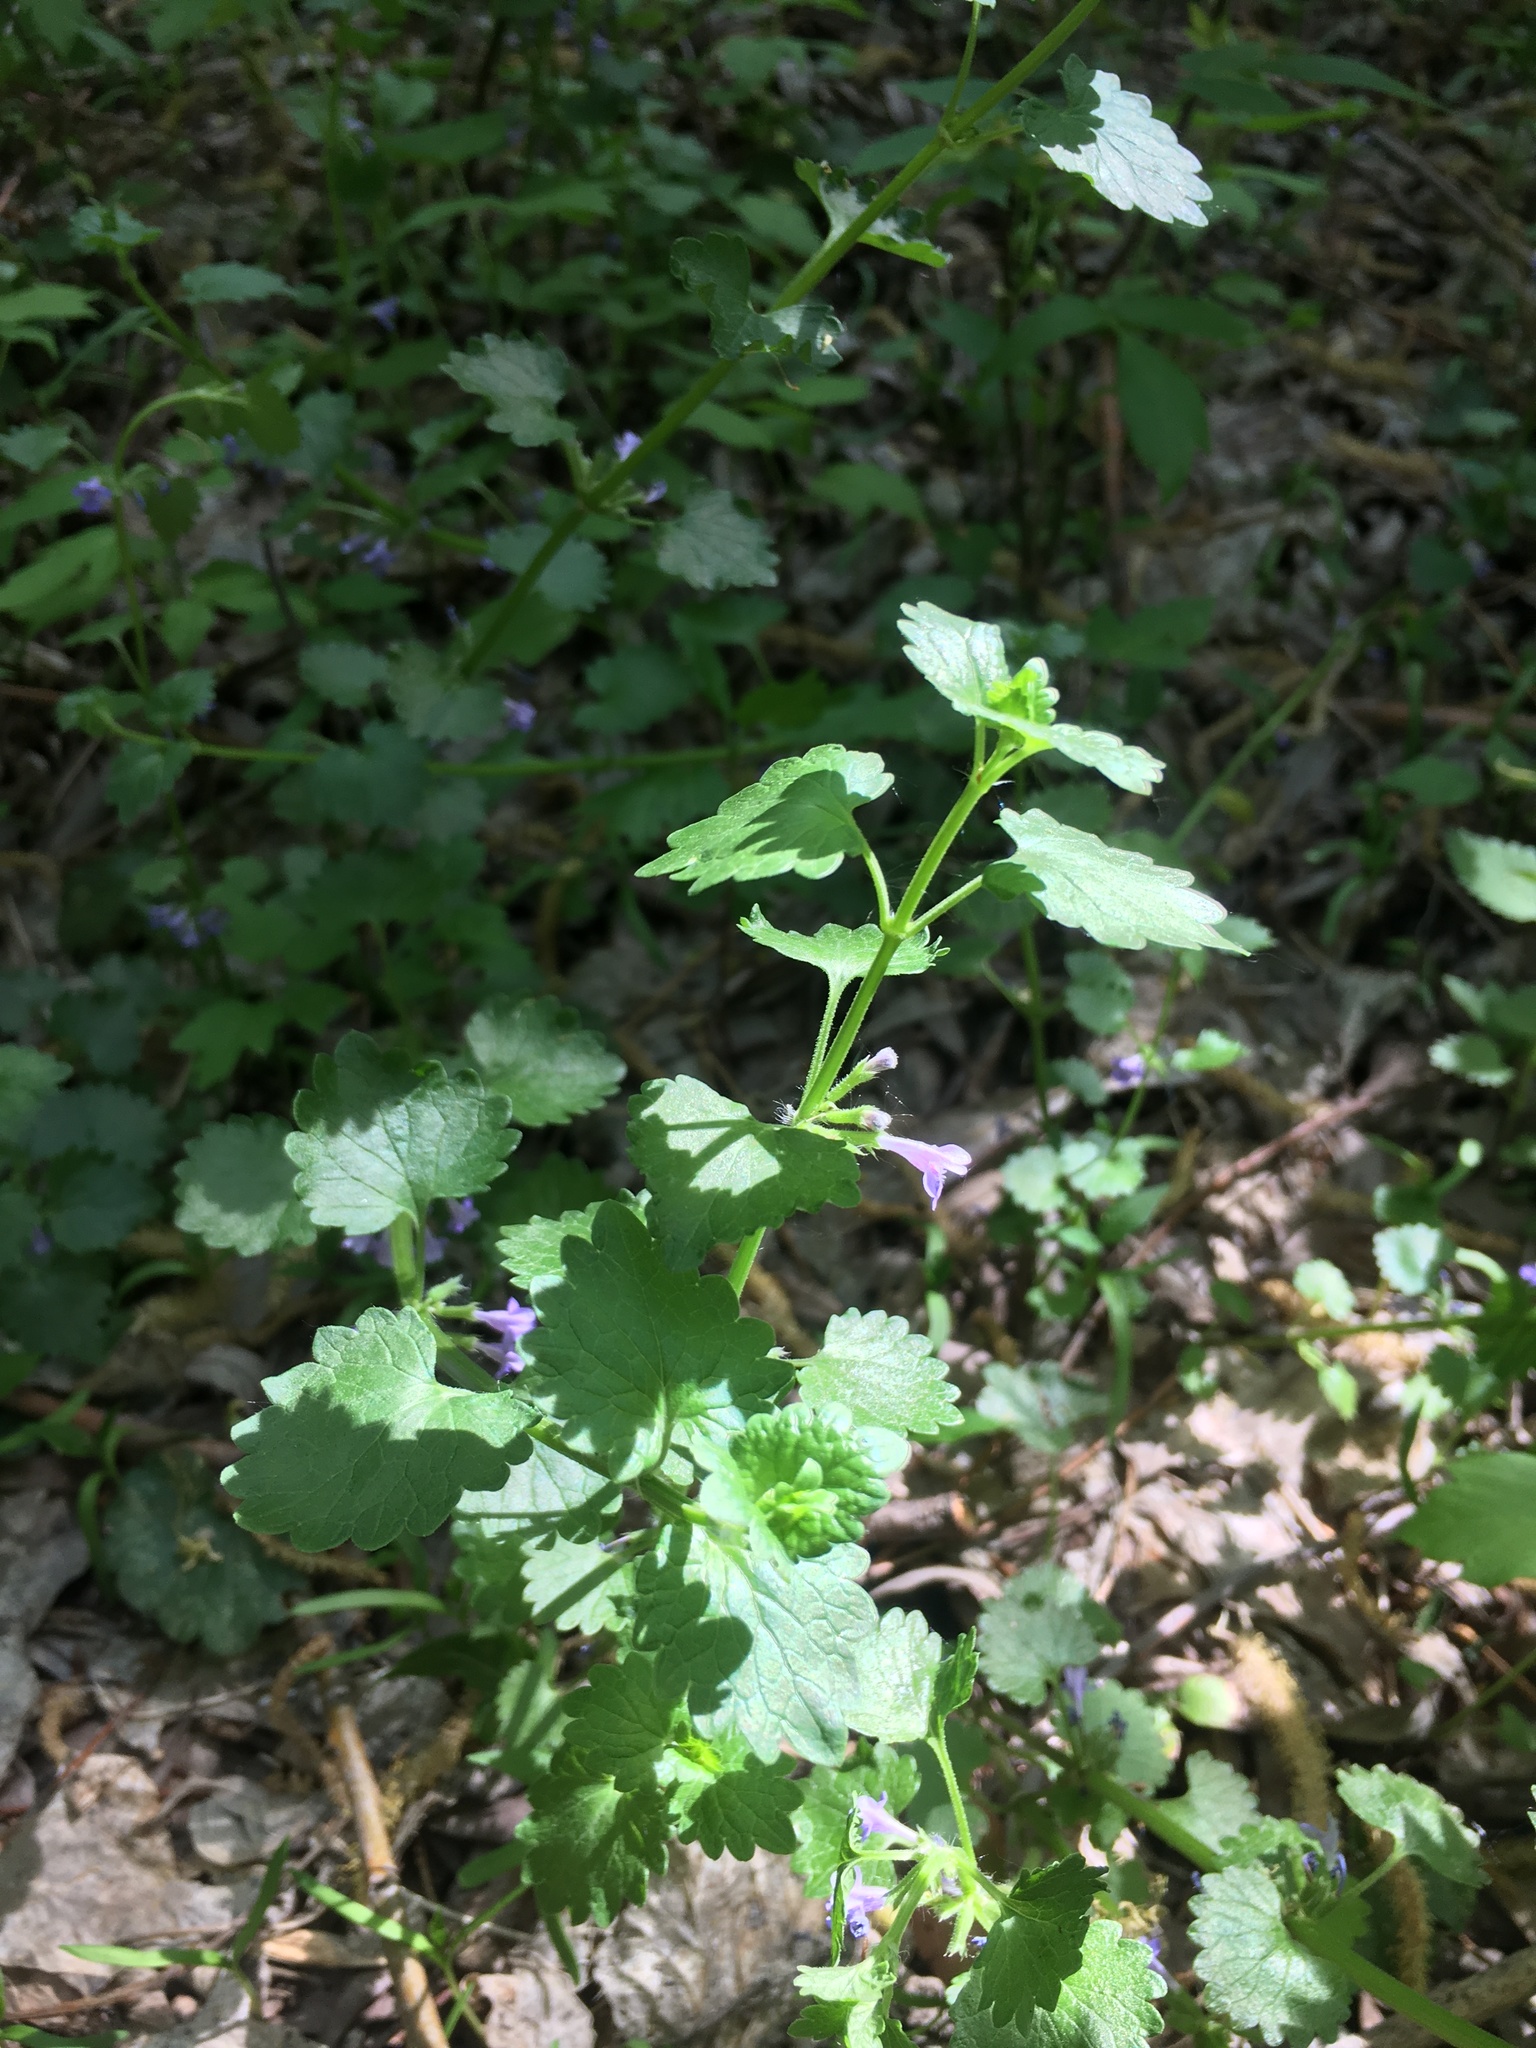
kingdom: Plantae
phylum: Tracheophyta
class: Magnoliopsida
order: Lamiales
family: Lamiaceae
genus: Glechoma
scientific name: Glechoma hederacea
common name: Ground ivy
